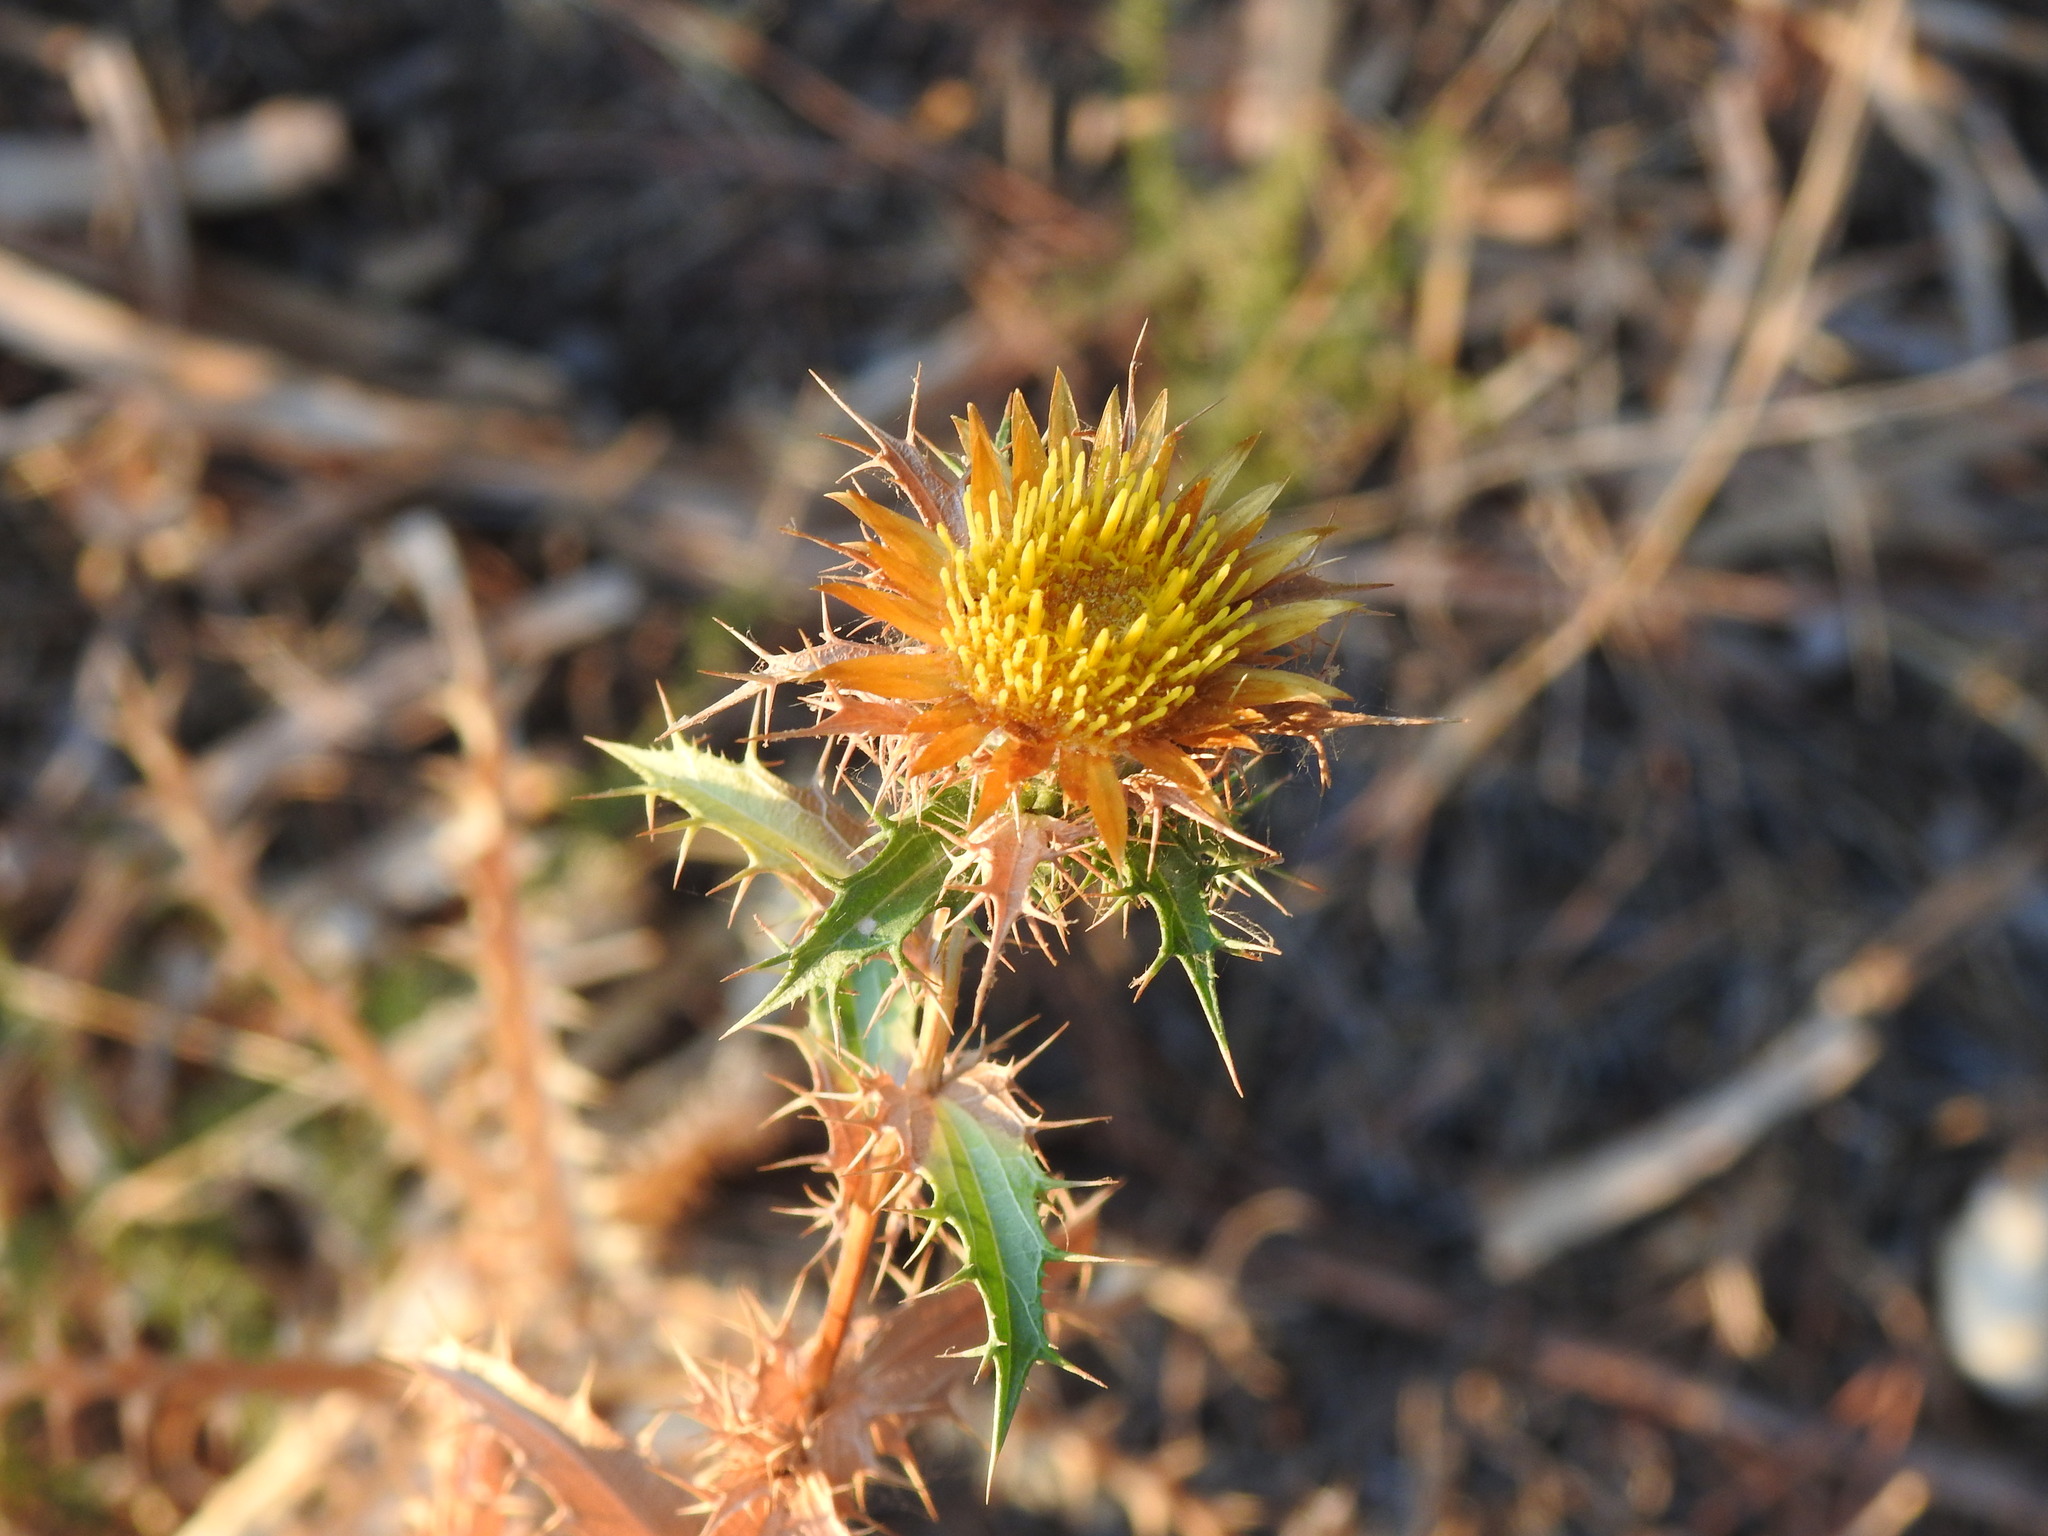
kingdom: Plantae
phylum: Tracheophyta
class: Magnoliopsida
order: Asterales
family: Asteraceae
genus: Carlina
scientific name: Carlina hispanica
